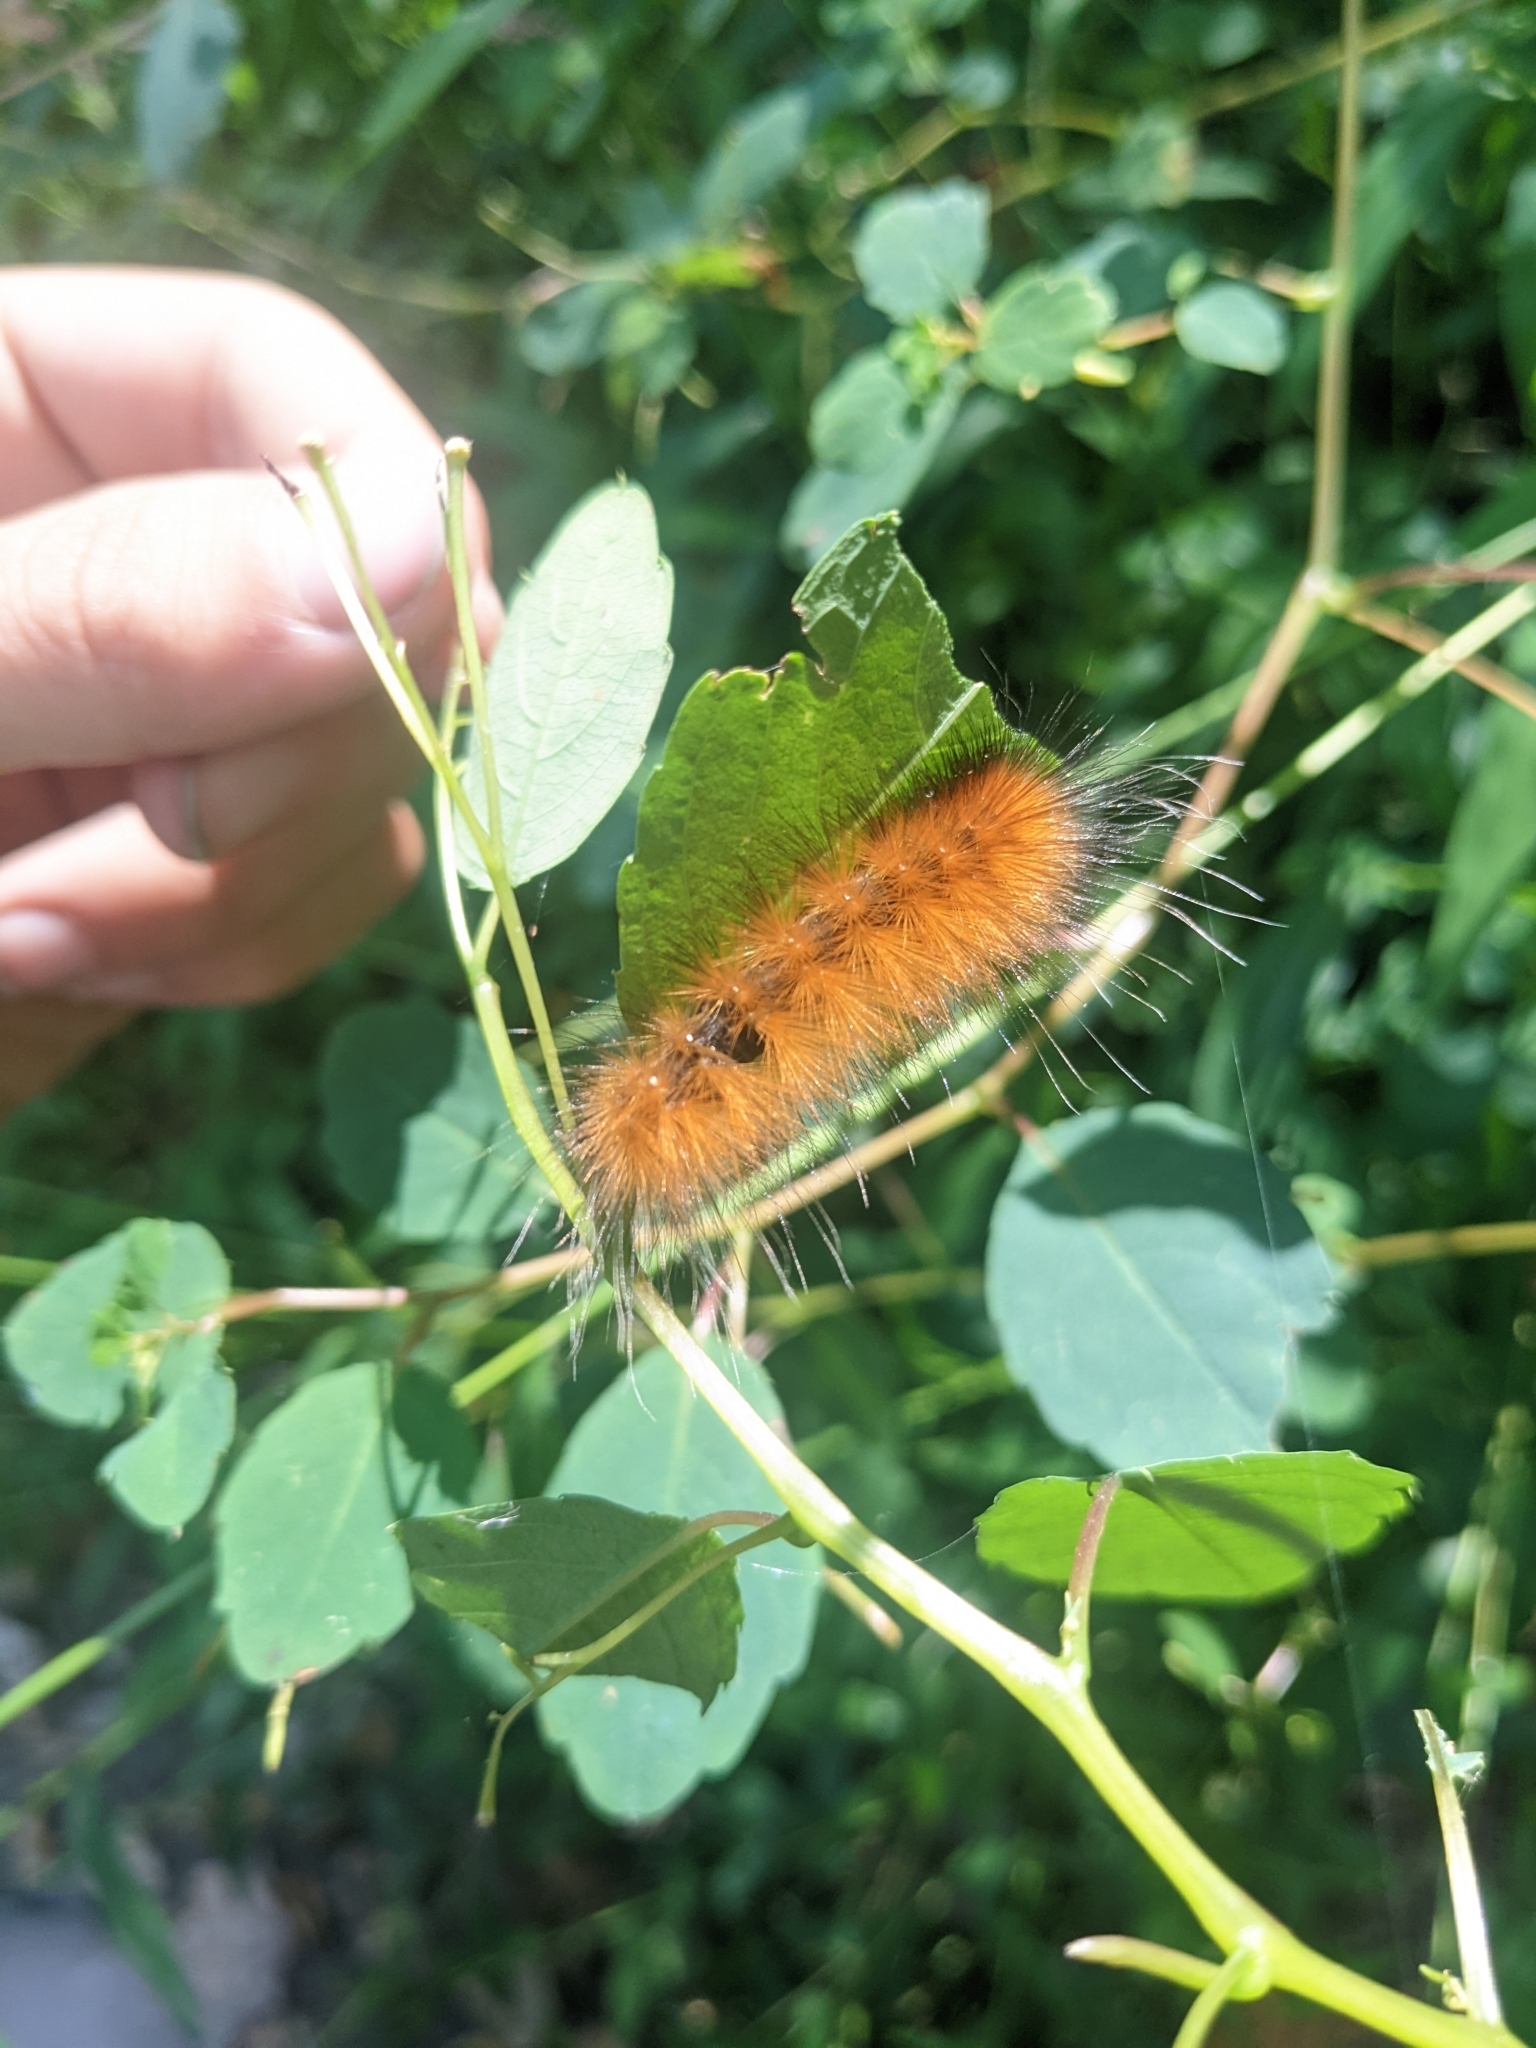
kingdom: Animalia
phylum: Arthropoda
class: Insecta
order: Lepidoptera
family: Erebidae
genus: Spilosoma
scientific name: Spilosoma virginica
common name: Virginia tiger moth
